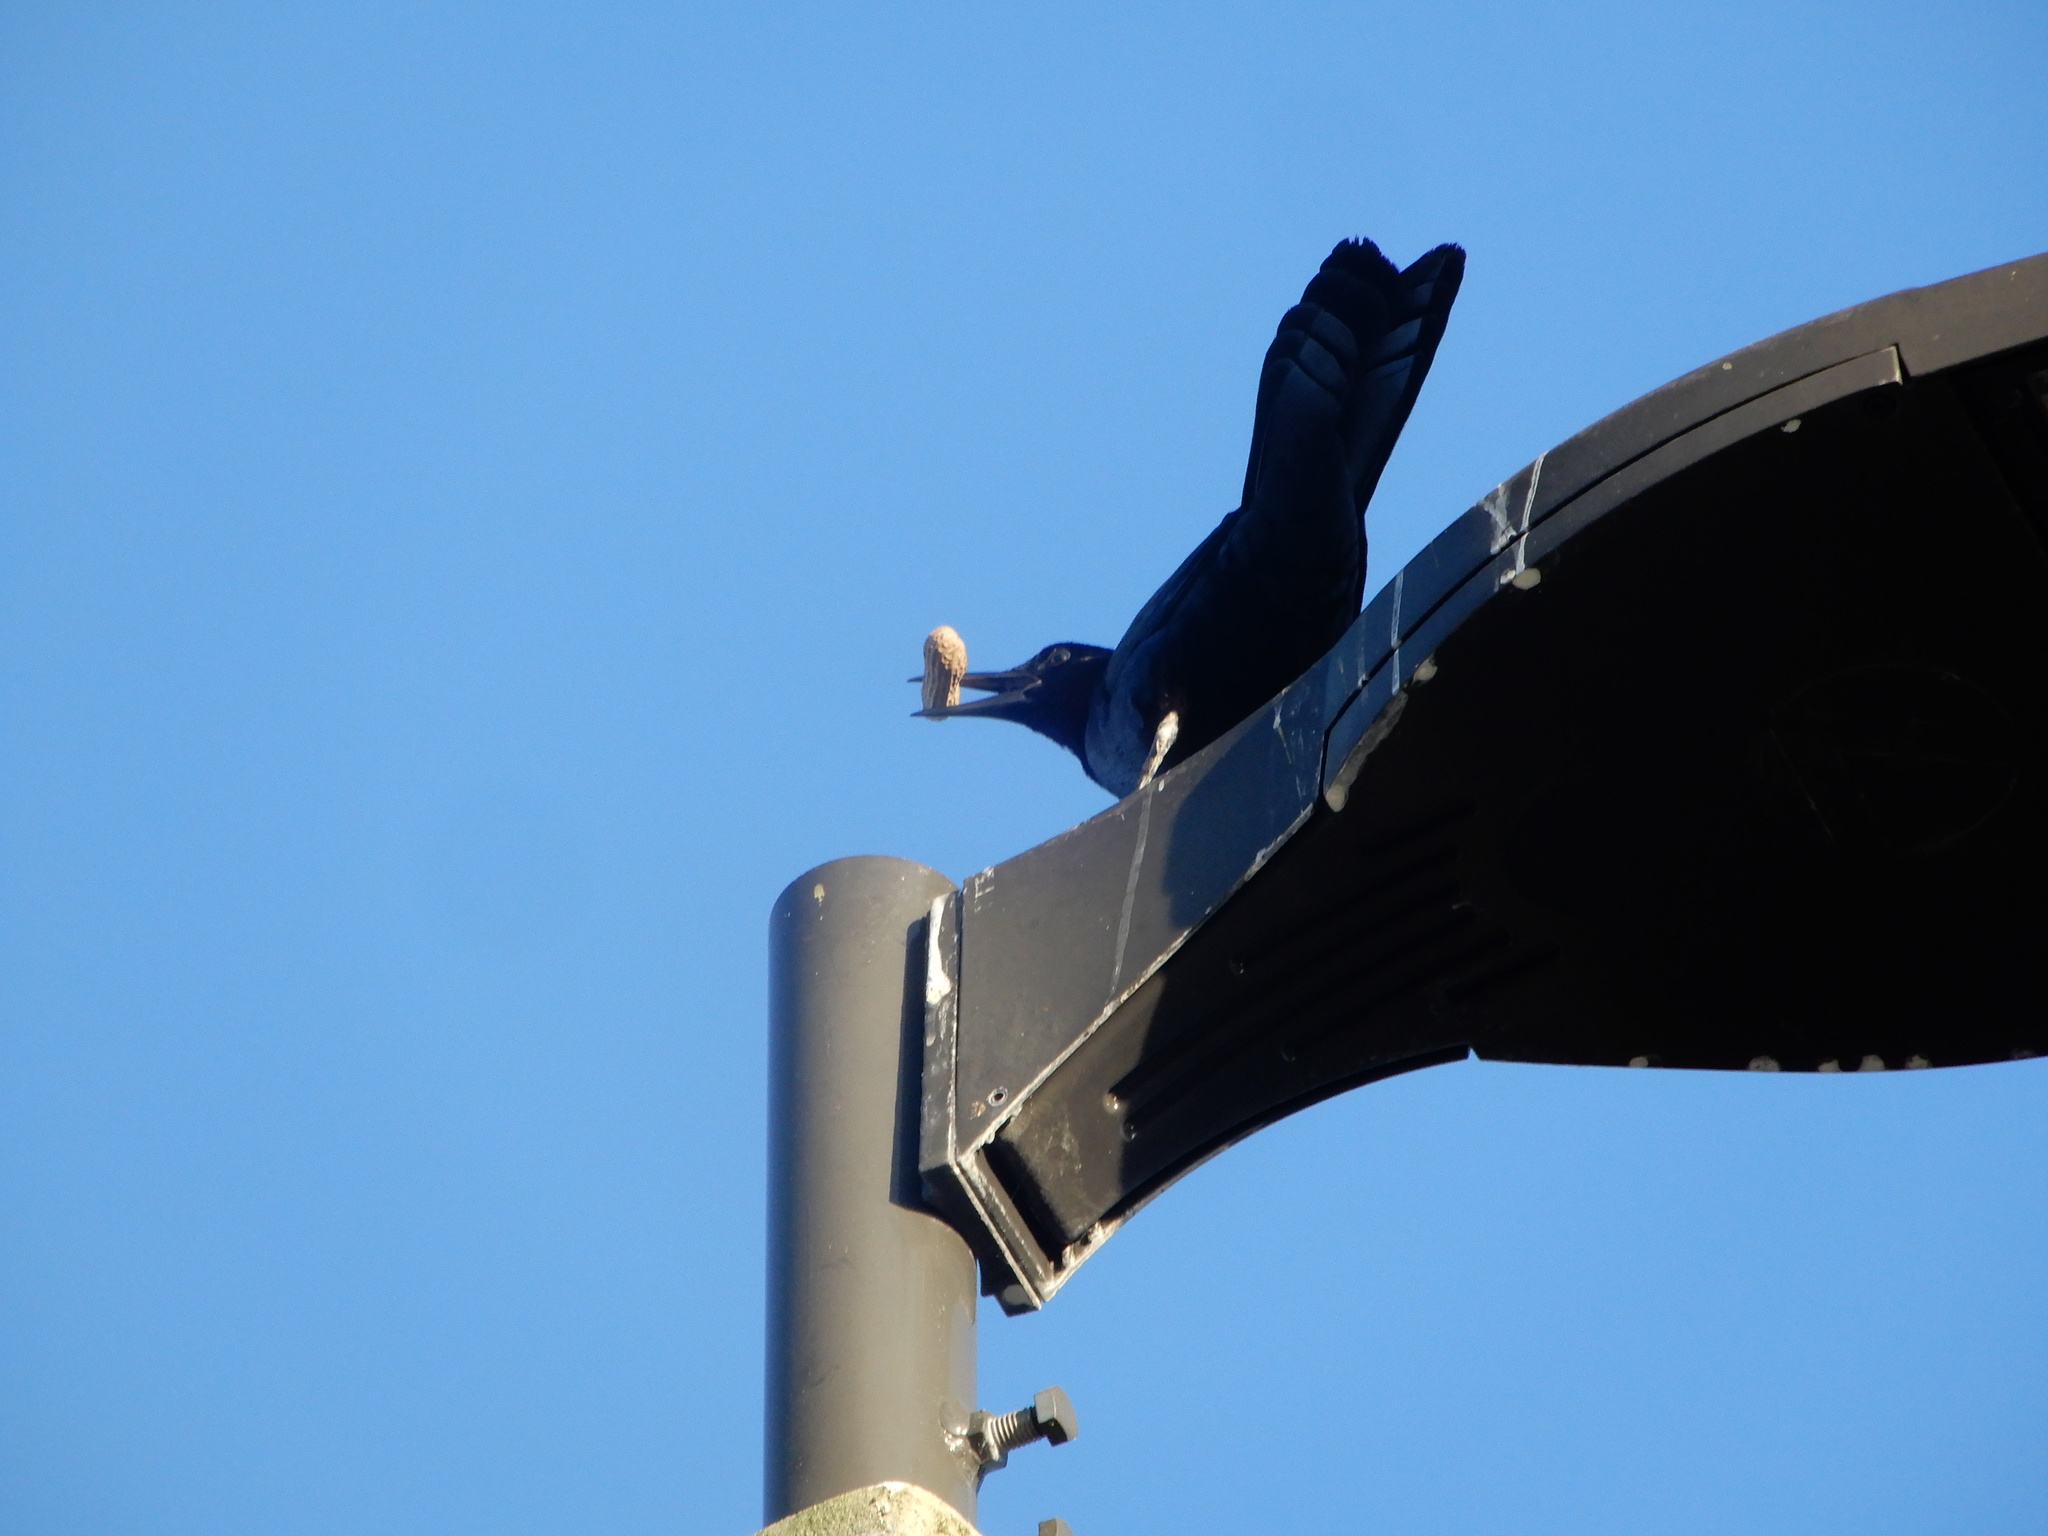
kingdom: Animalia
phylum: Chordata
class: Aves
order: Passeriformes
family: Icteridae
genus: Quiscalus
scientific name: Quiscalus major
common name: Boat-tailed grackle
